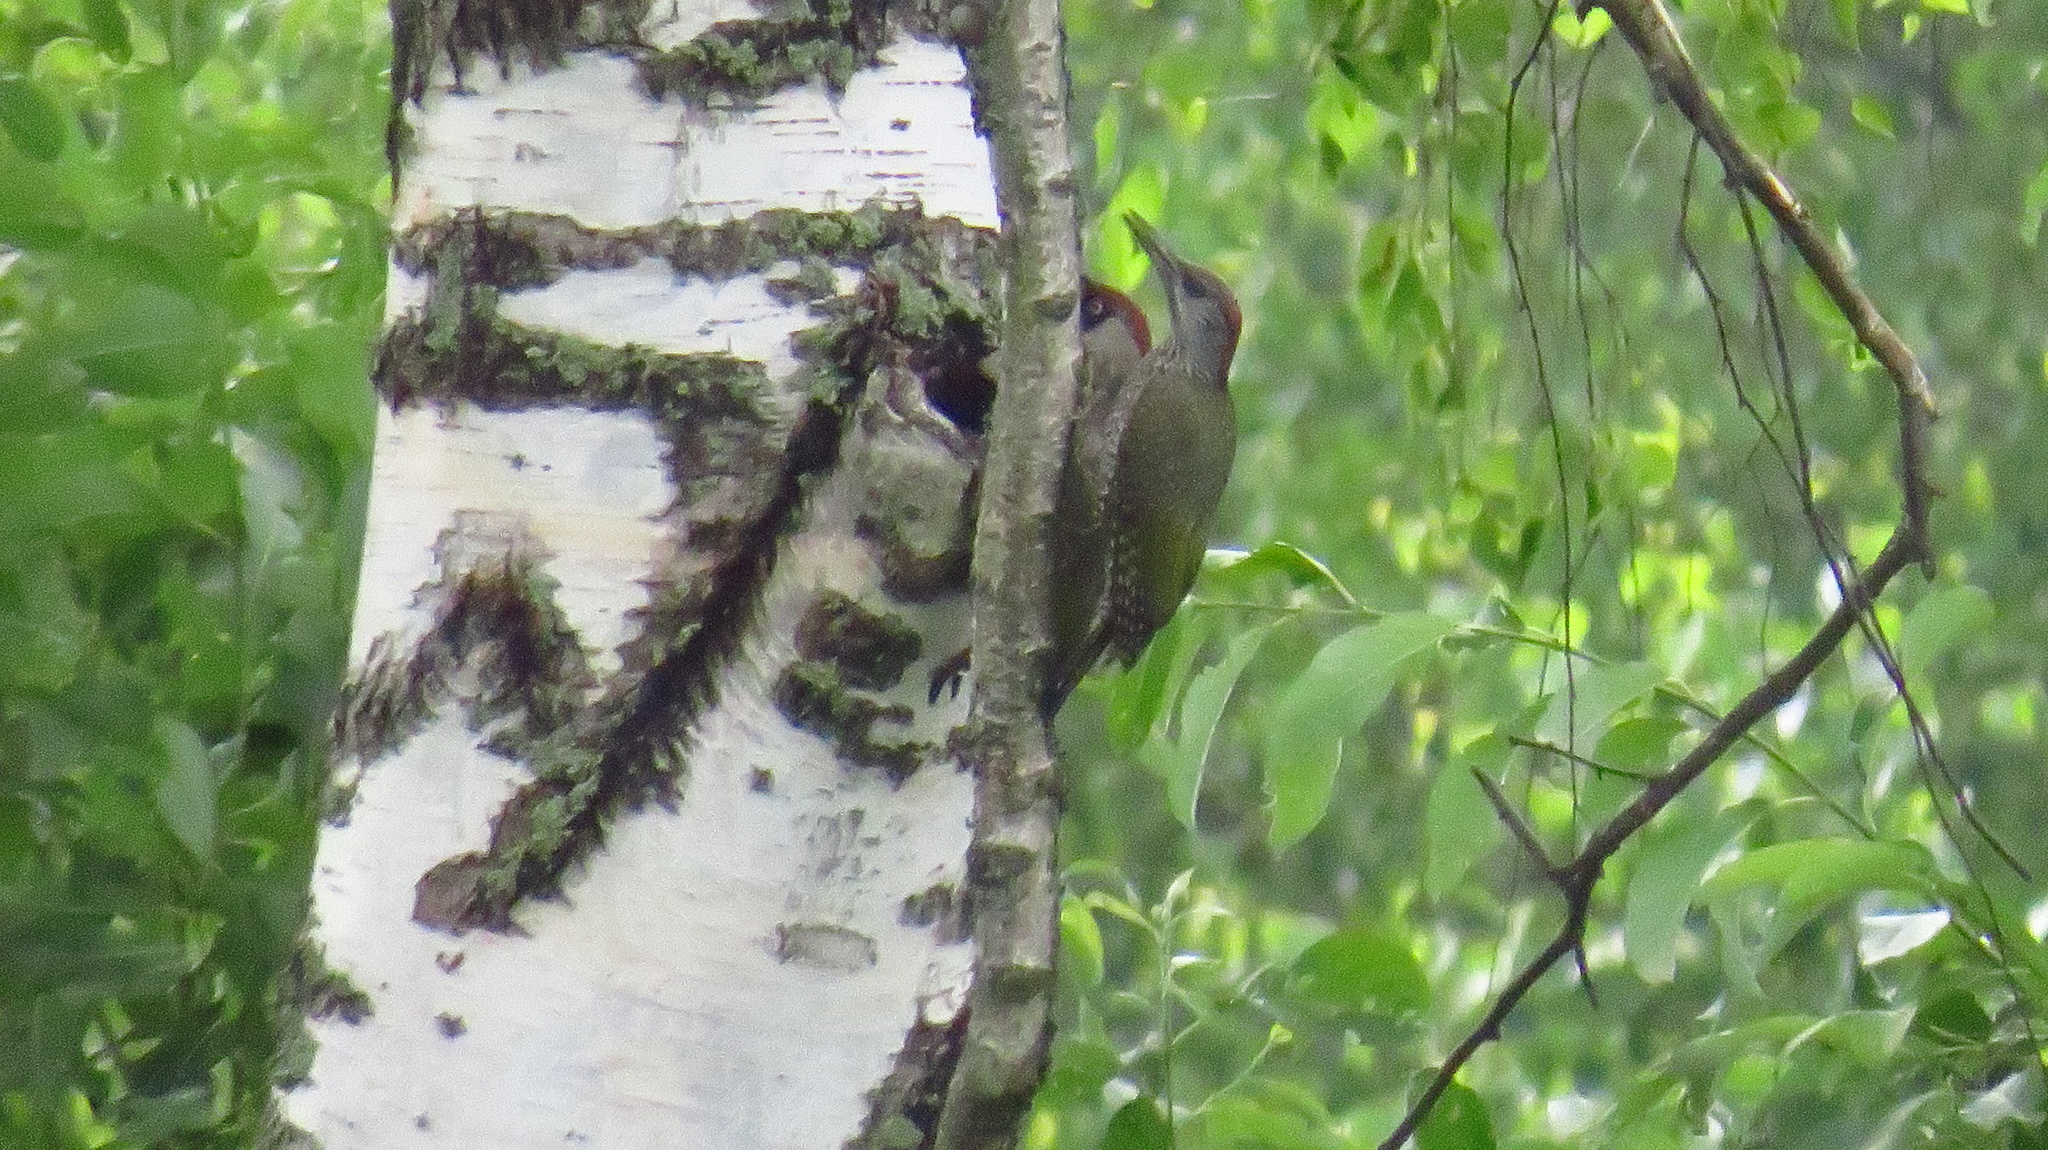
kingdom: Animalia
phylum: Chordata
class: Aves
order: Piciformes
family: Picidae
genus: Picus
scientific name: Picus viridis
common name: European green woodpecker
